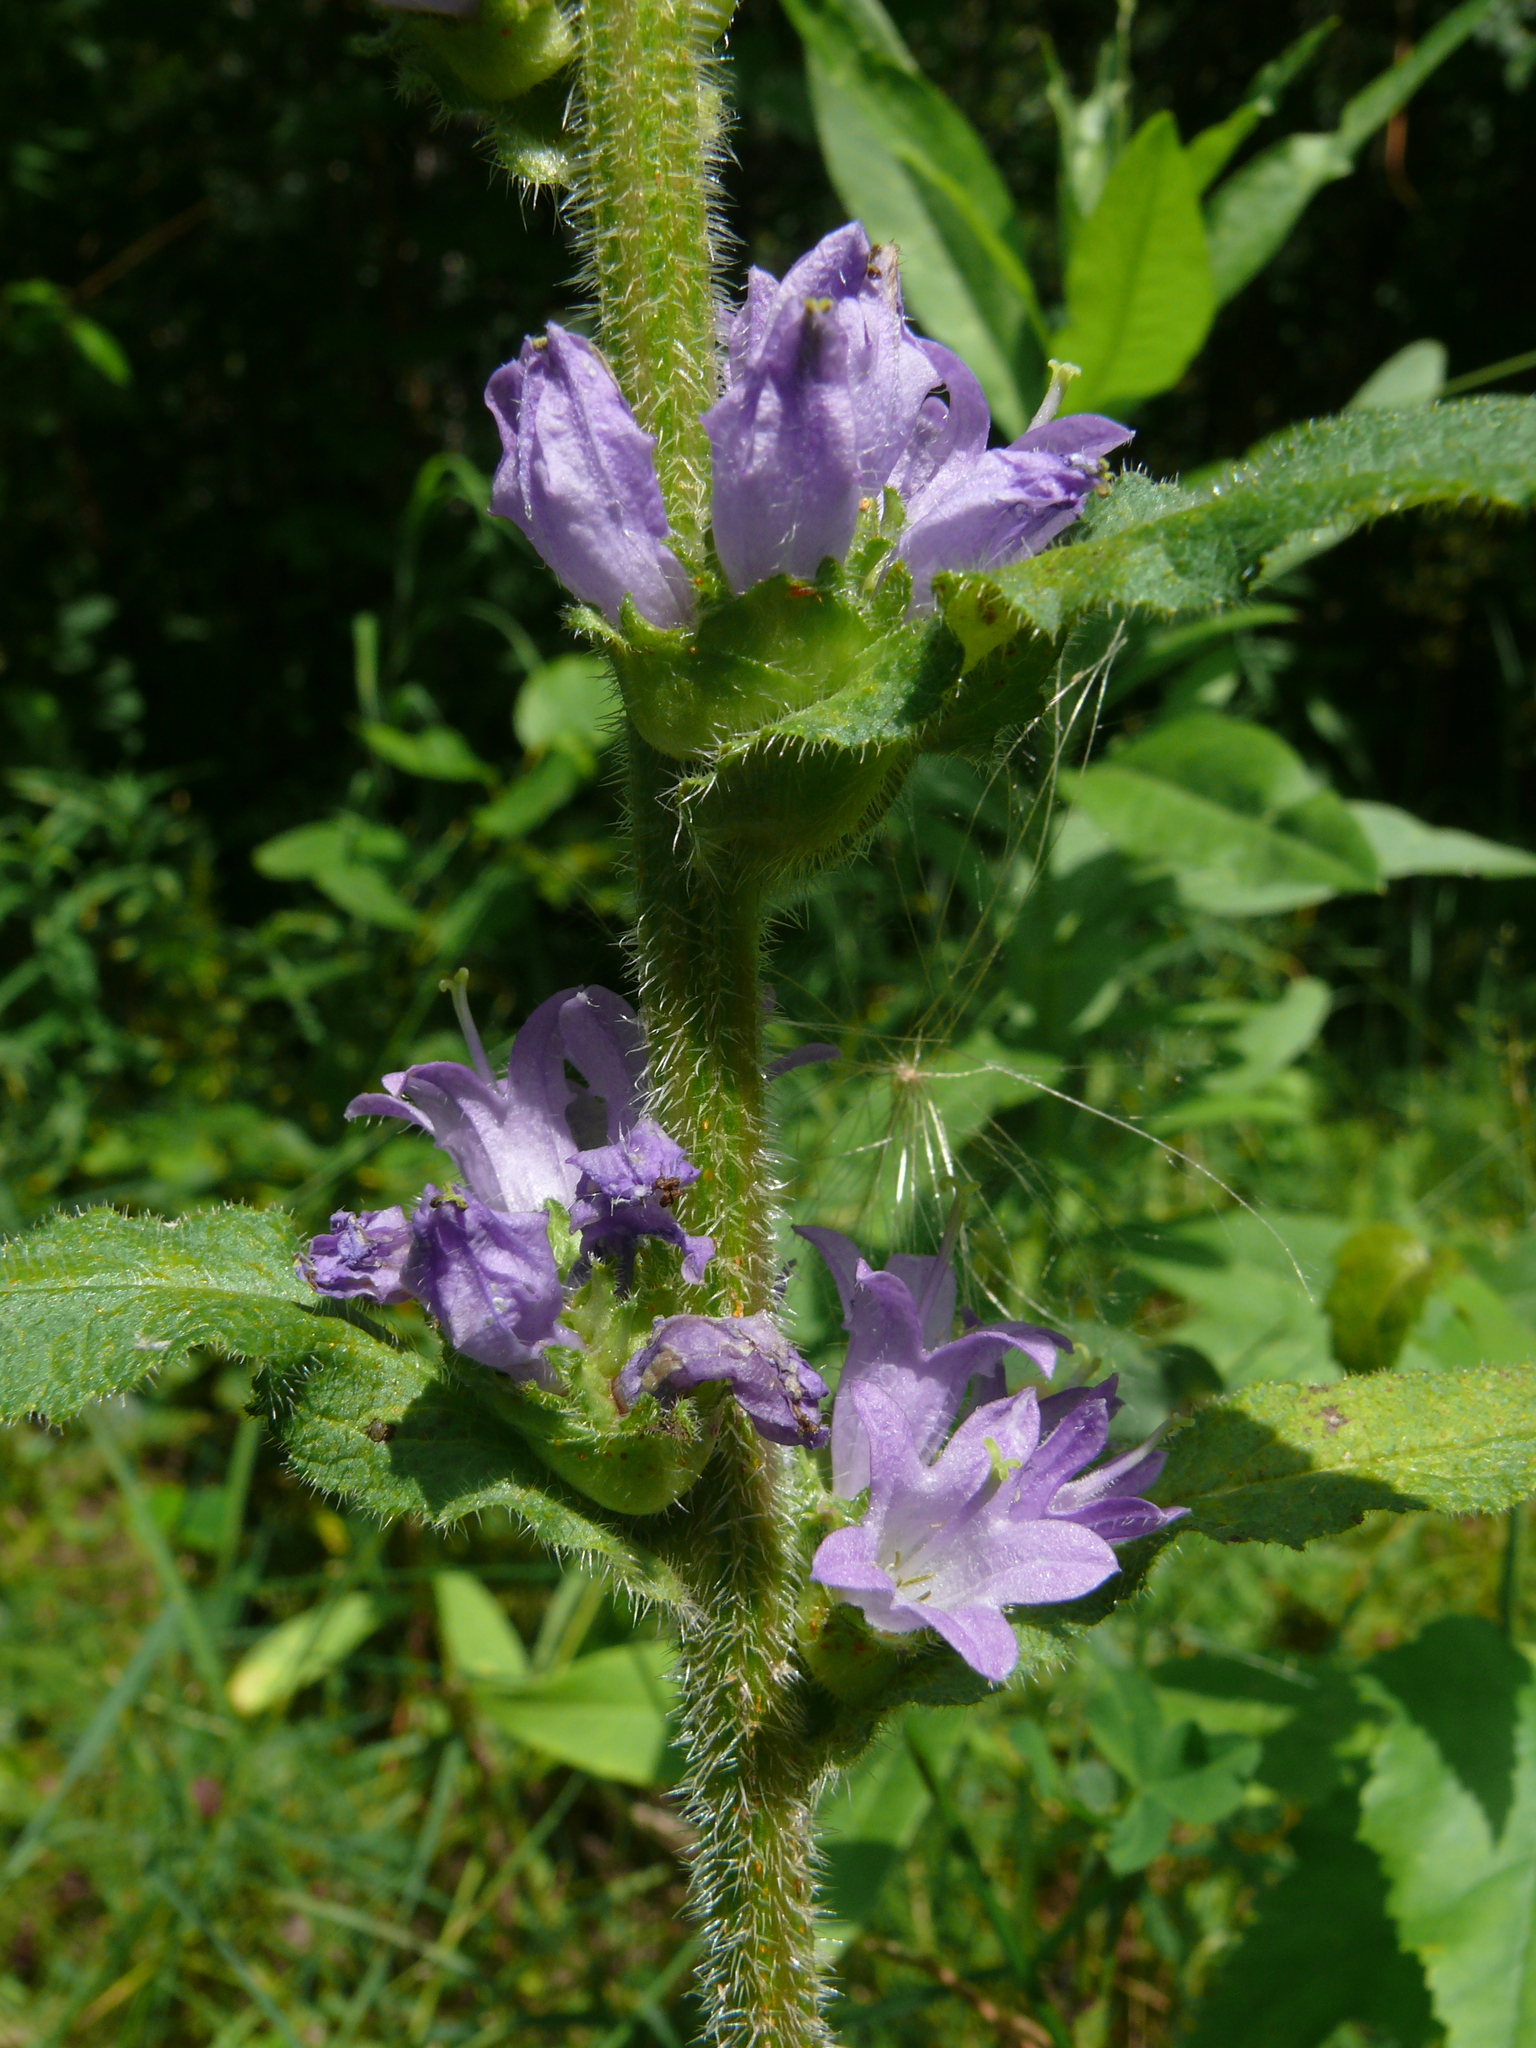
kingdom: Plantae
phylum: Tracheophyta
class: Magnoliopsida
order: Asterales
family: Campanulaceae
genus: Campanula
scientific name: Campanula cervicaria
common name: Bristly bellflower
